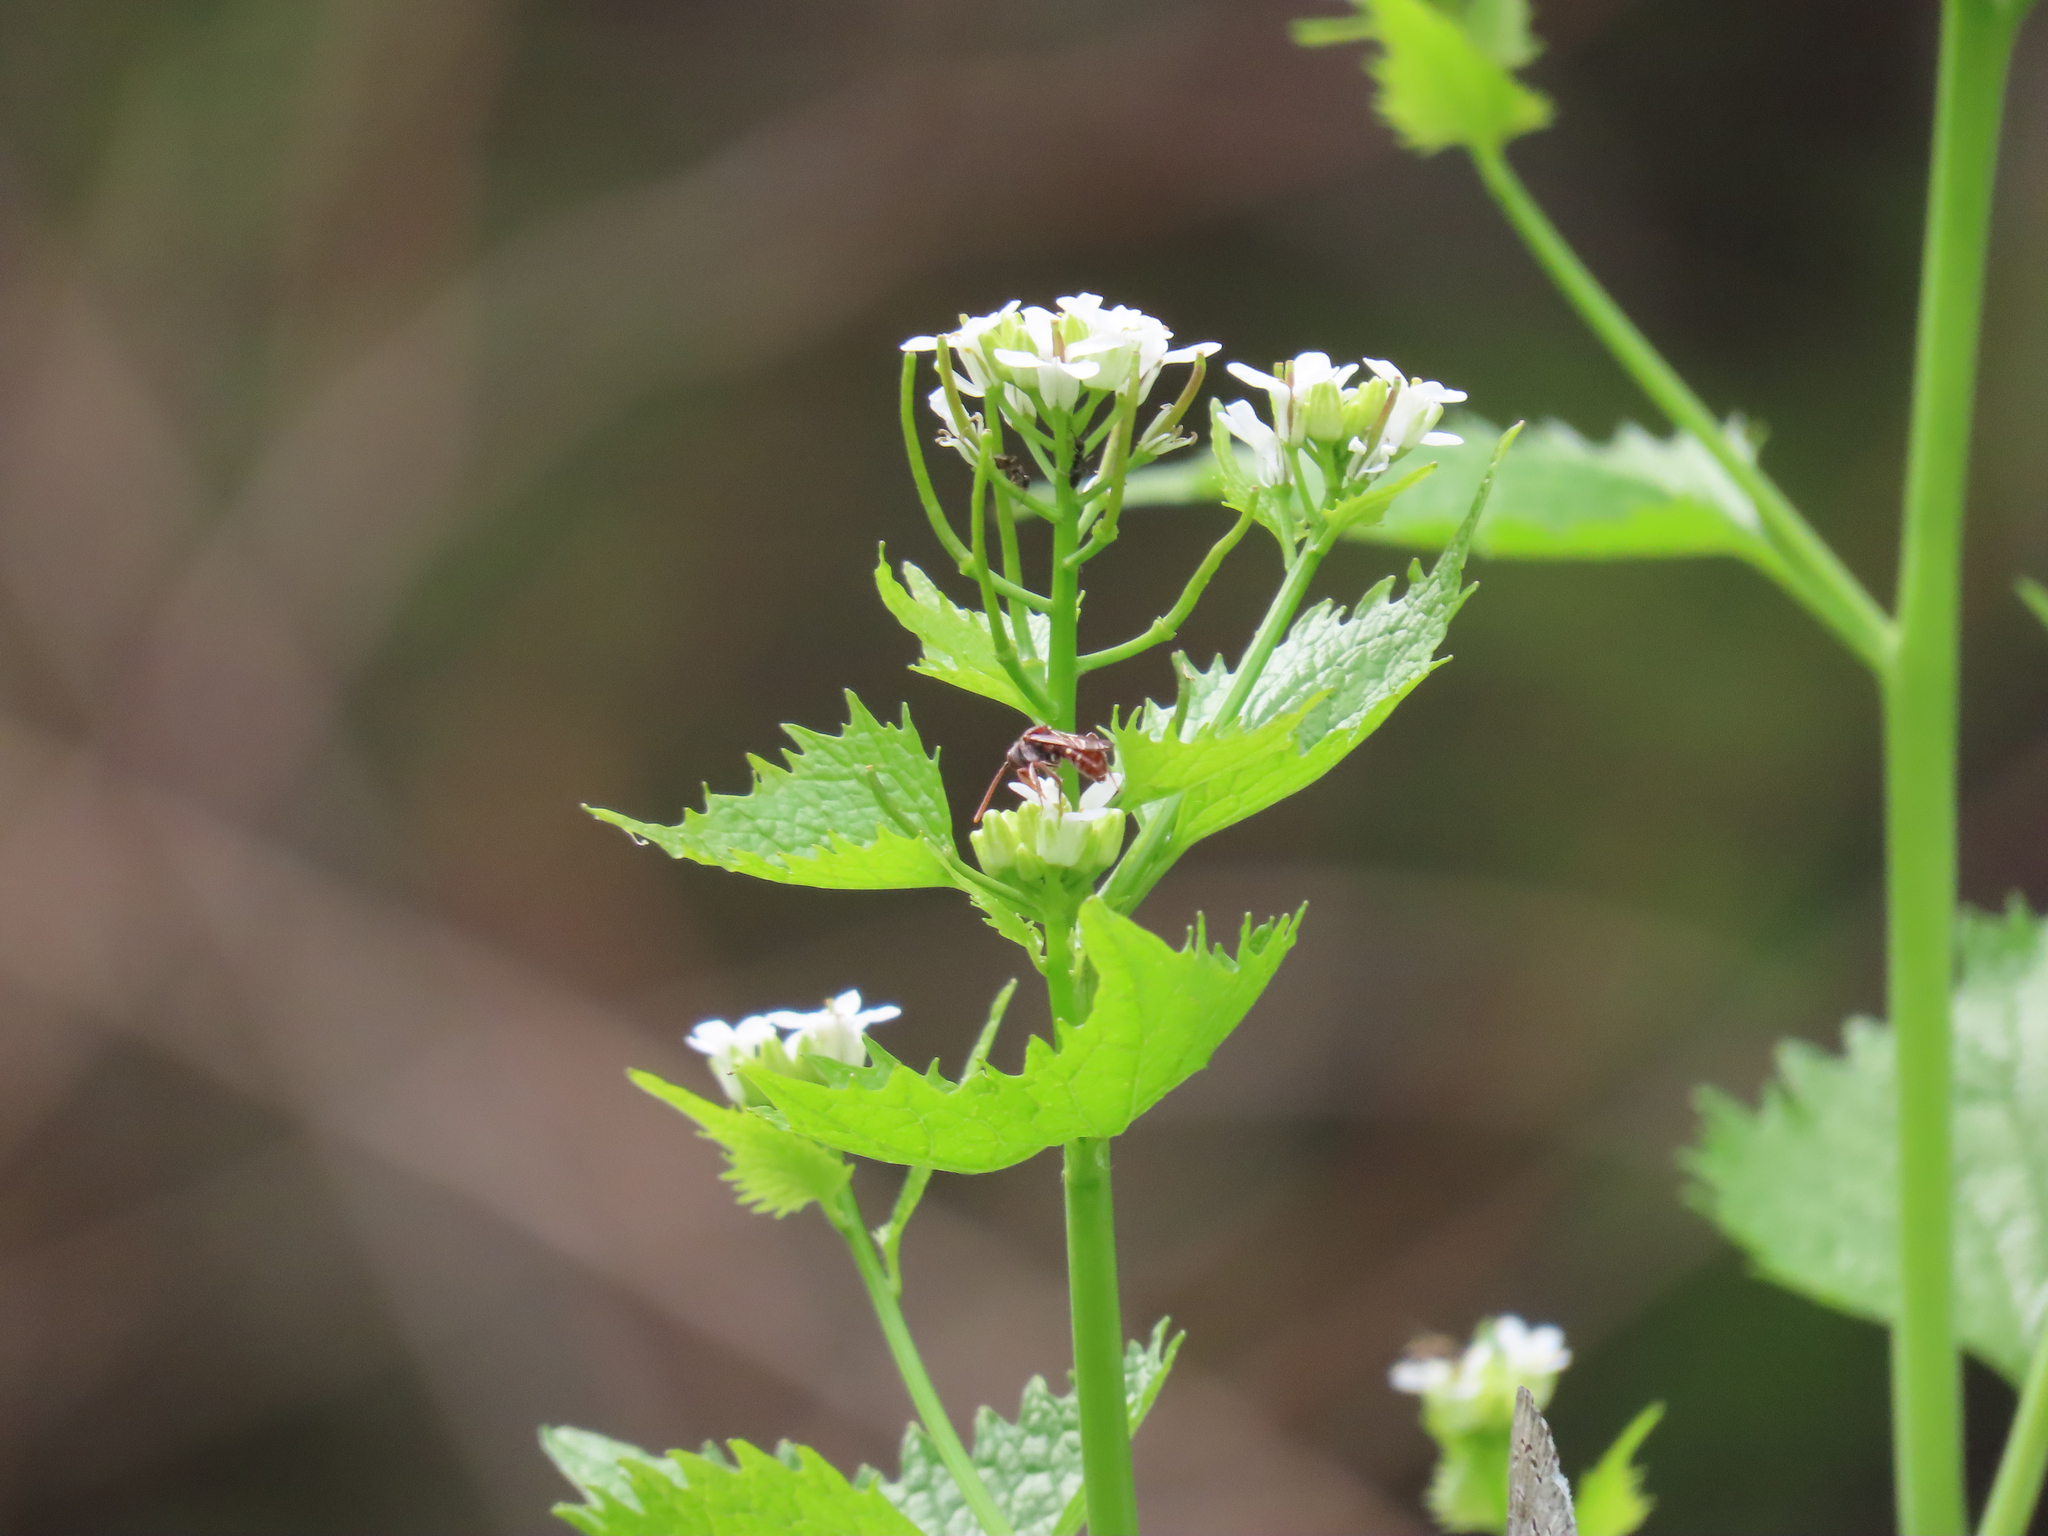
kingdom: Plantae
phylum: Tracheophyta
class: Magnoliopsida
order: Brassicales
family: Brassicaceae
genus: Alliaria
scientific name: Alliaria petiolata
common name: Garlic mustard
